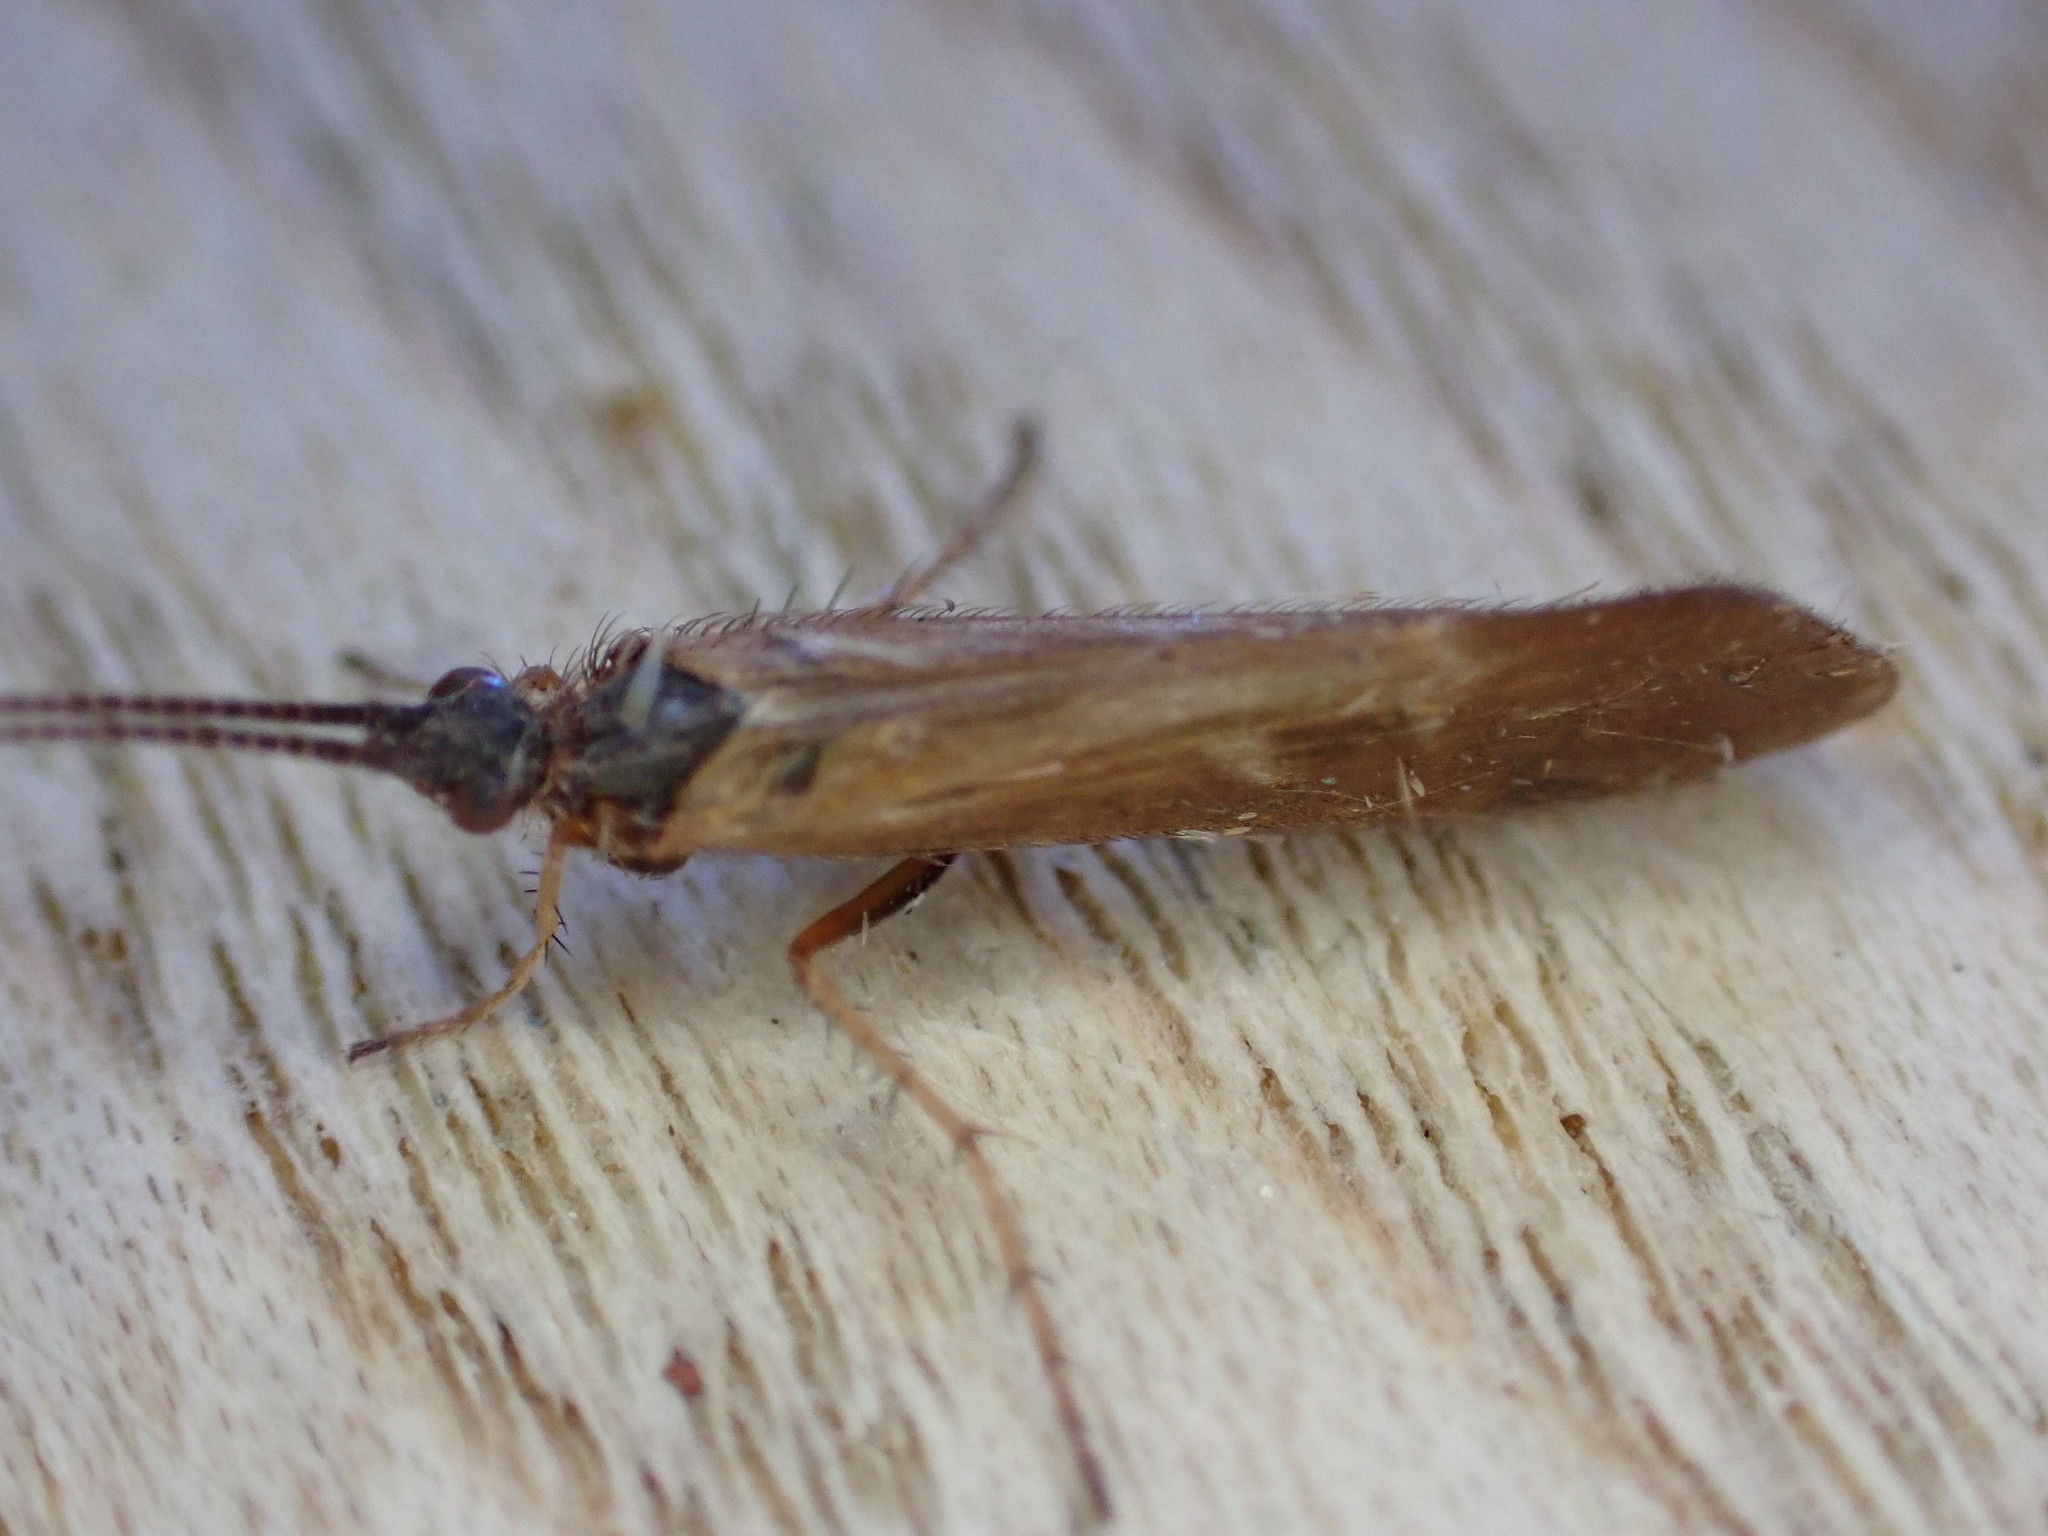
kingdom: Animalia
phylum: Arthropoda
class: Insecta
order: Trichoptera
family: Limnephilidae
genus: Limnephilus
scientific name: Limnephilus auricula
